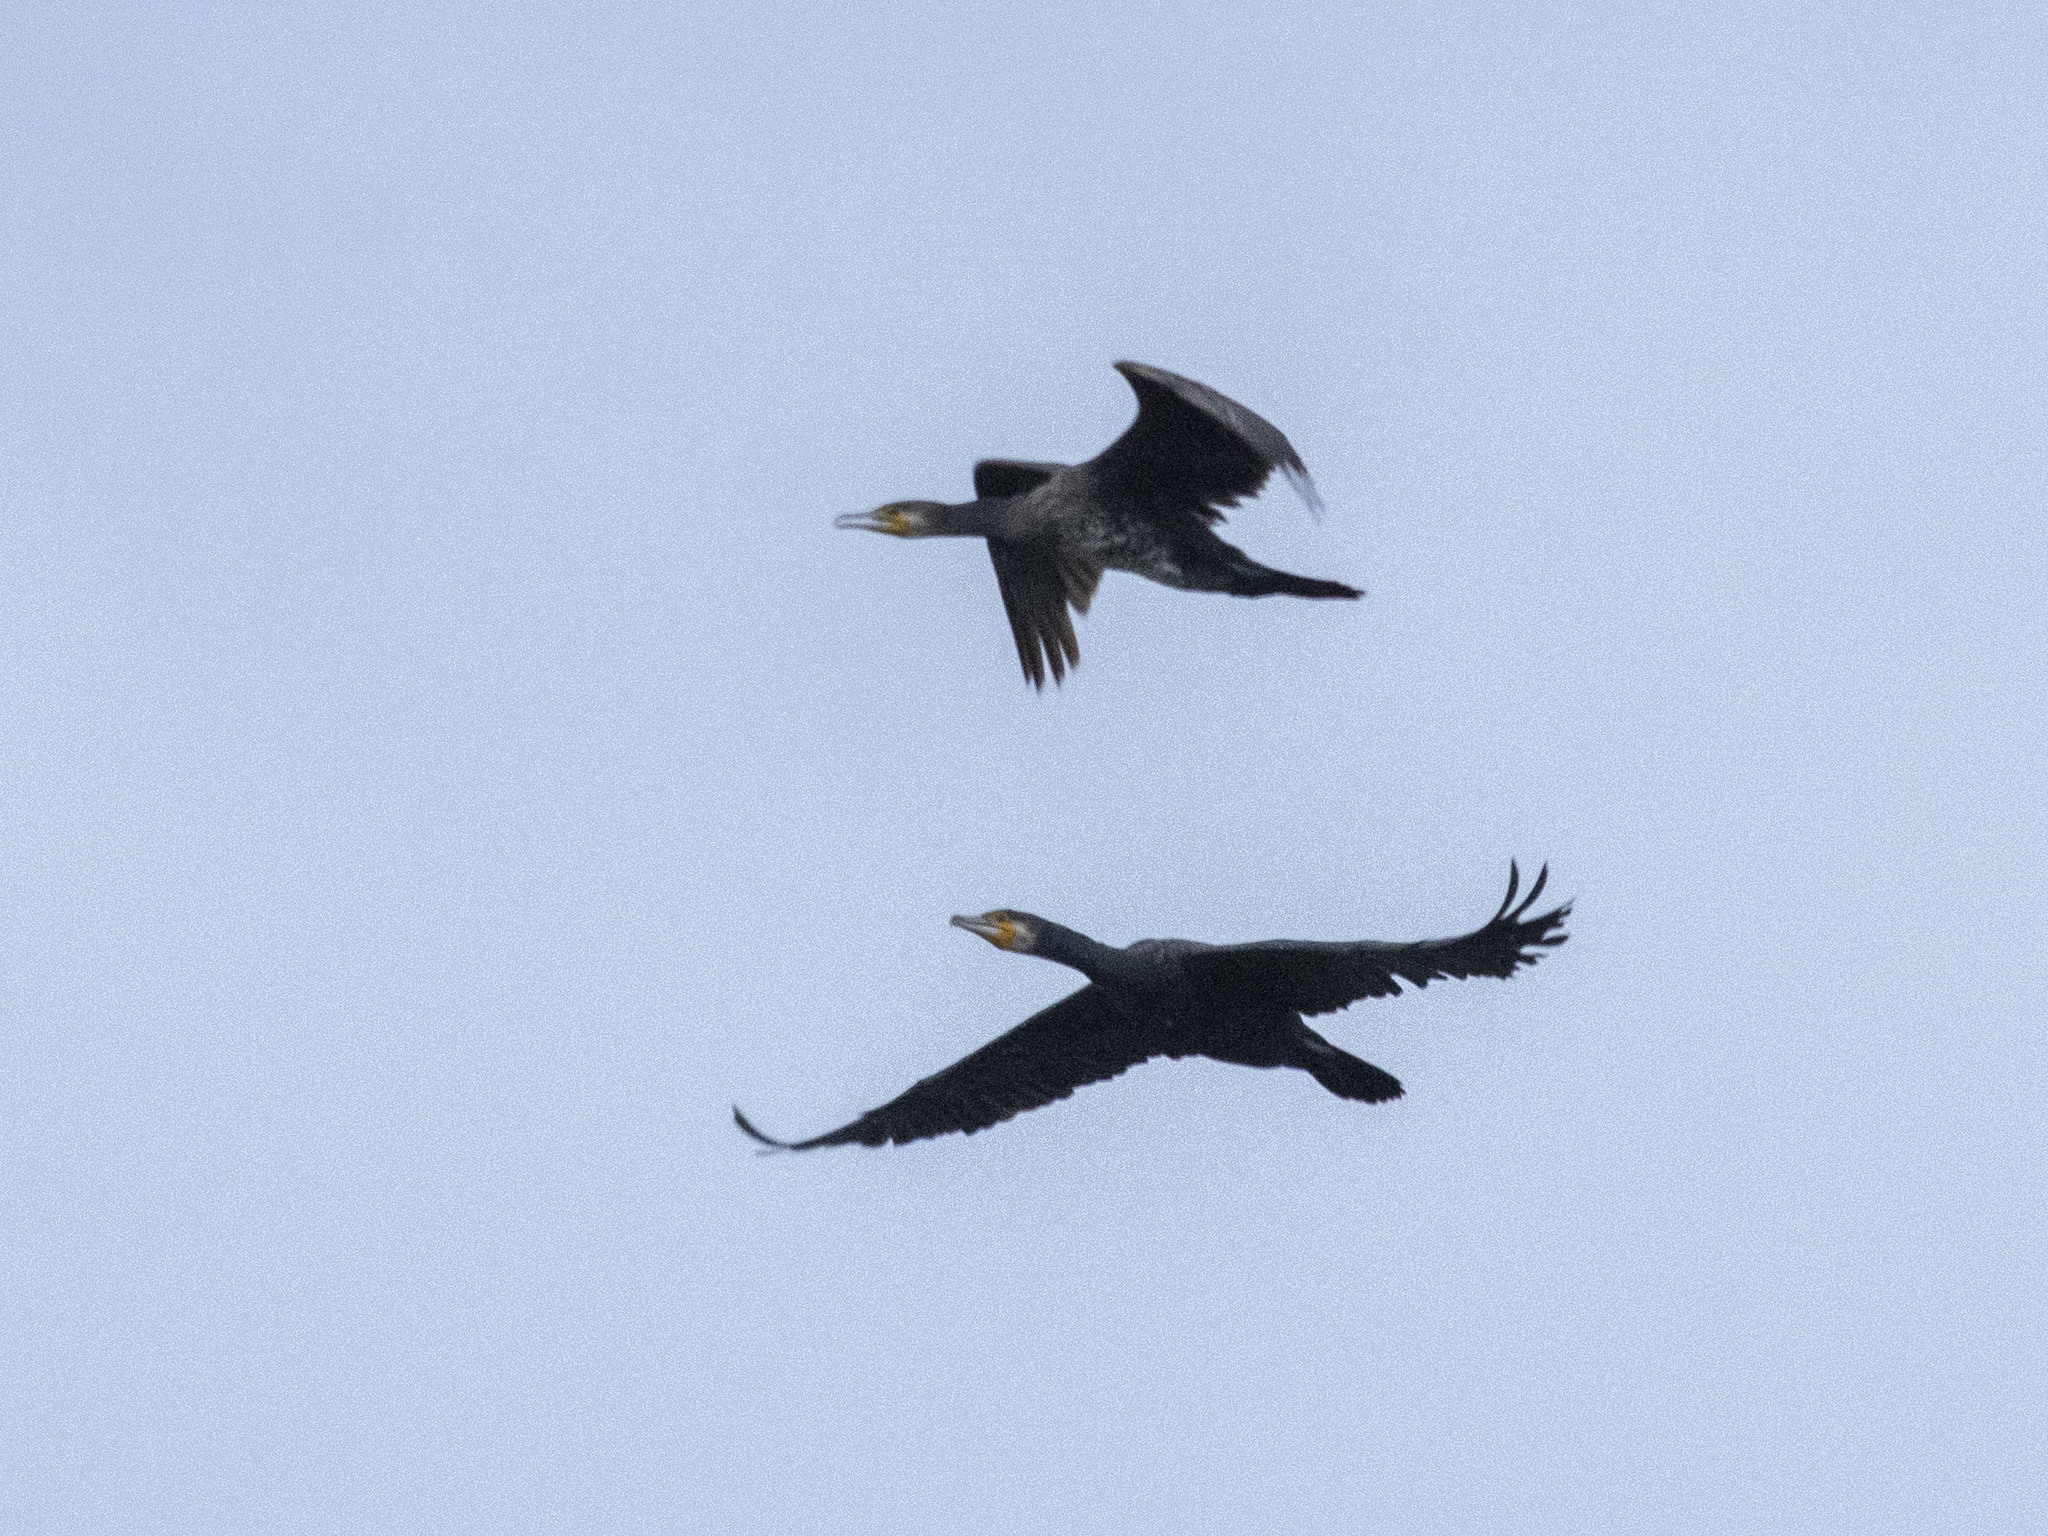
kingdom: Animalia
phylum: Chordata
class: Aves
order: Suliformes
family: Phalacrocoracidae
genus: Phalacrocorax
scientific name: Phalacrocorax carbo
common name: Great cormorant
